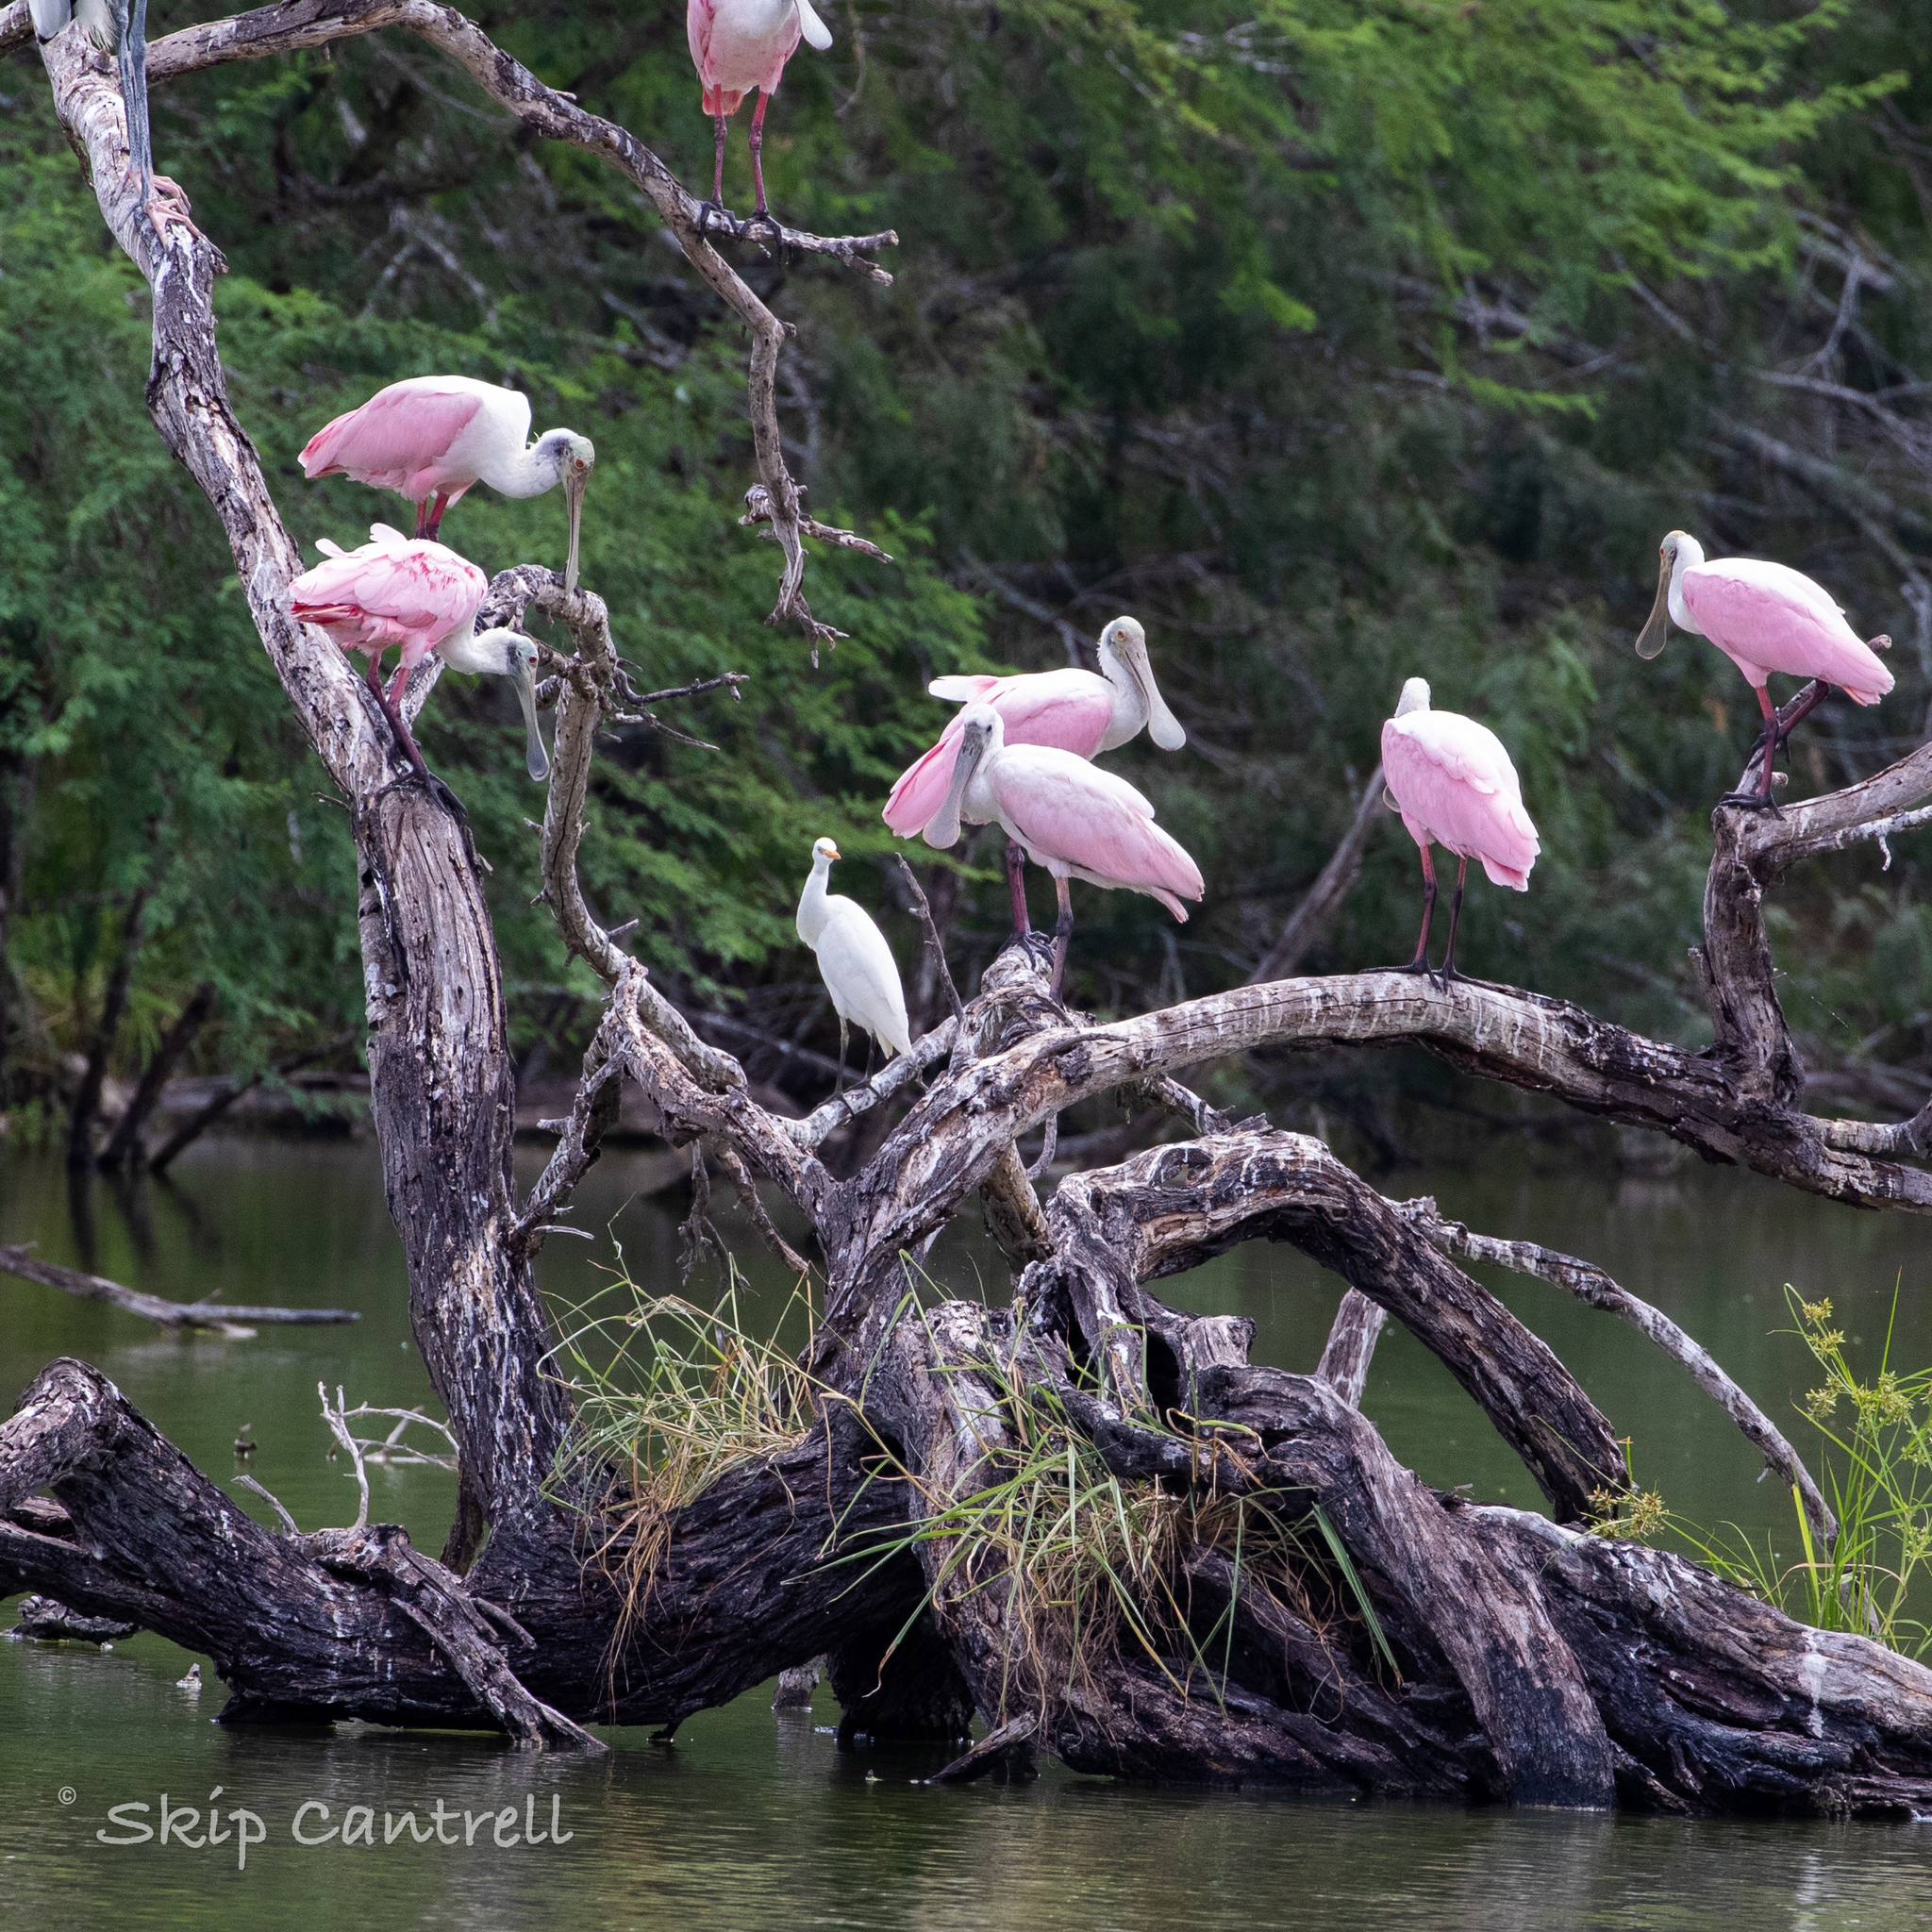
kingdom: Animalia
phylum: Chordata
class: Aves
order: Pelecaniformes
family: Threskiornithidae
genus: Platalea
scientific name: Platalea ajaja
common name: Roseate spoonbill
